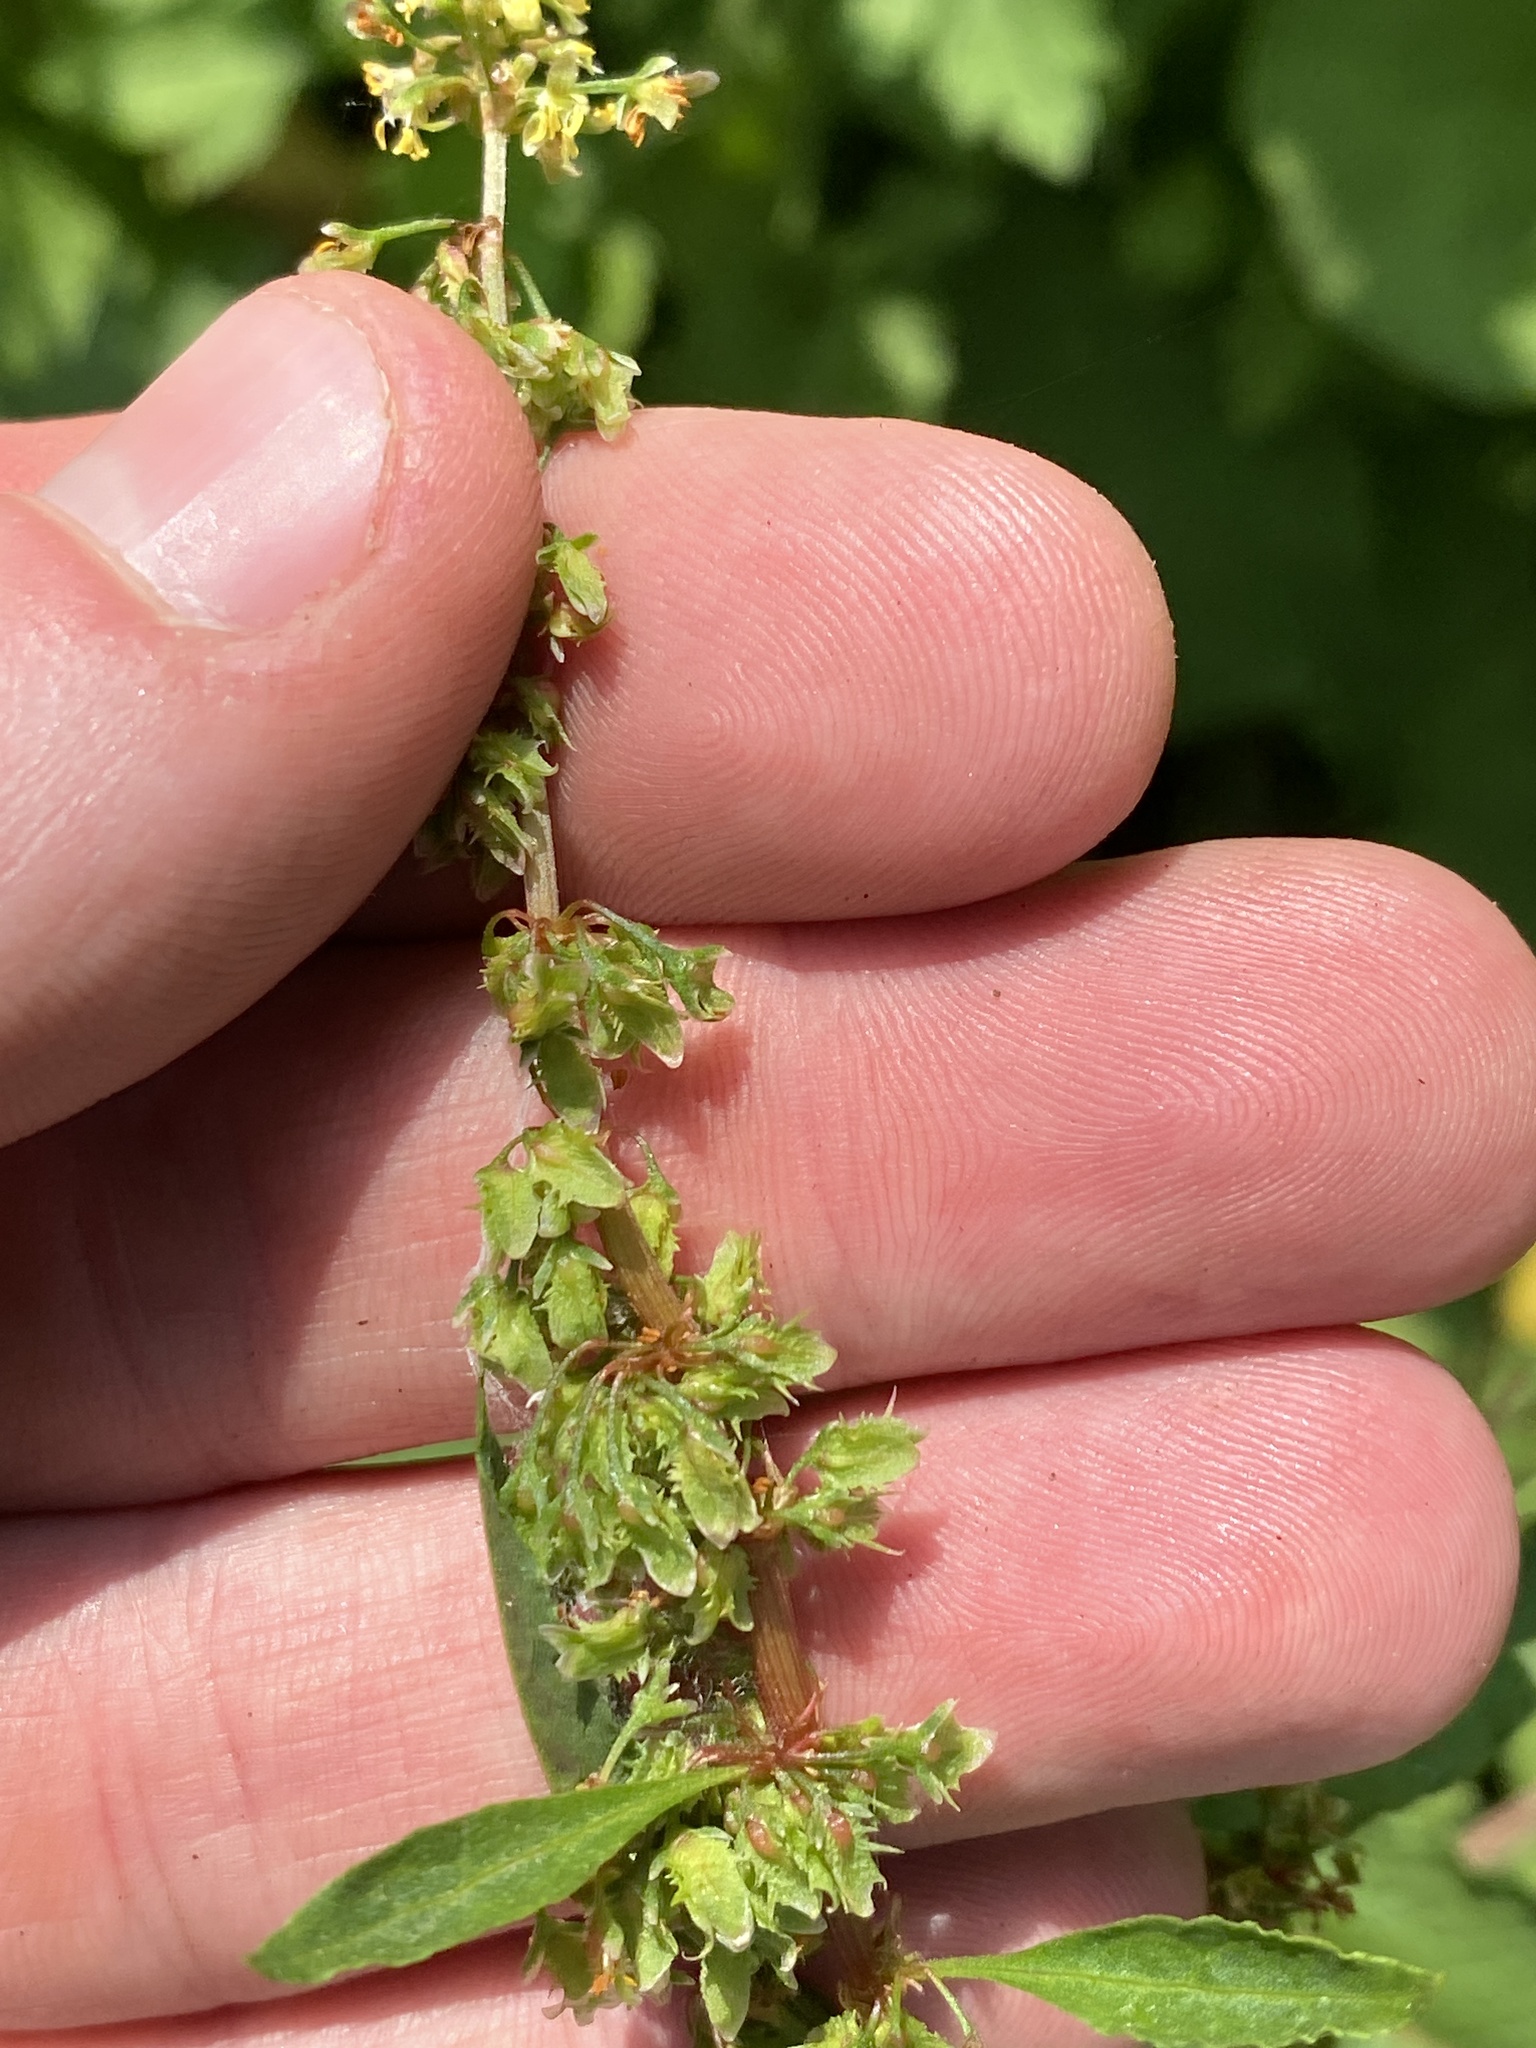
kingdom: Plantae
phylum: Tracheophyta
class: Magnoliopsida
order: Caryophyllales
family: Polygonaceae
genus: Rumex
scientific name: Rumex obtusifolius
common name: Bitter dock
